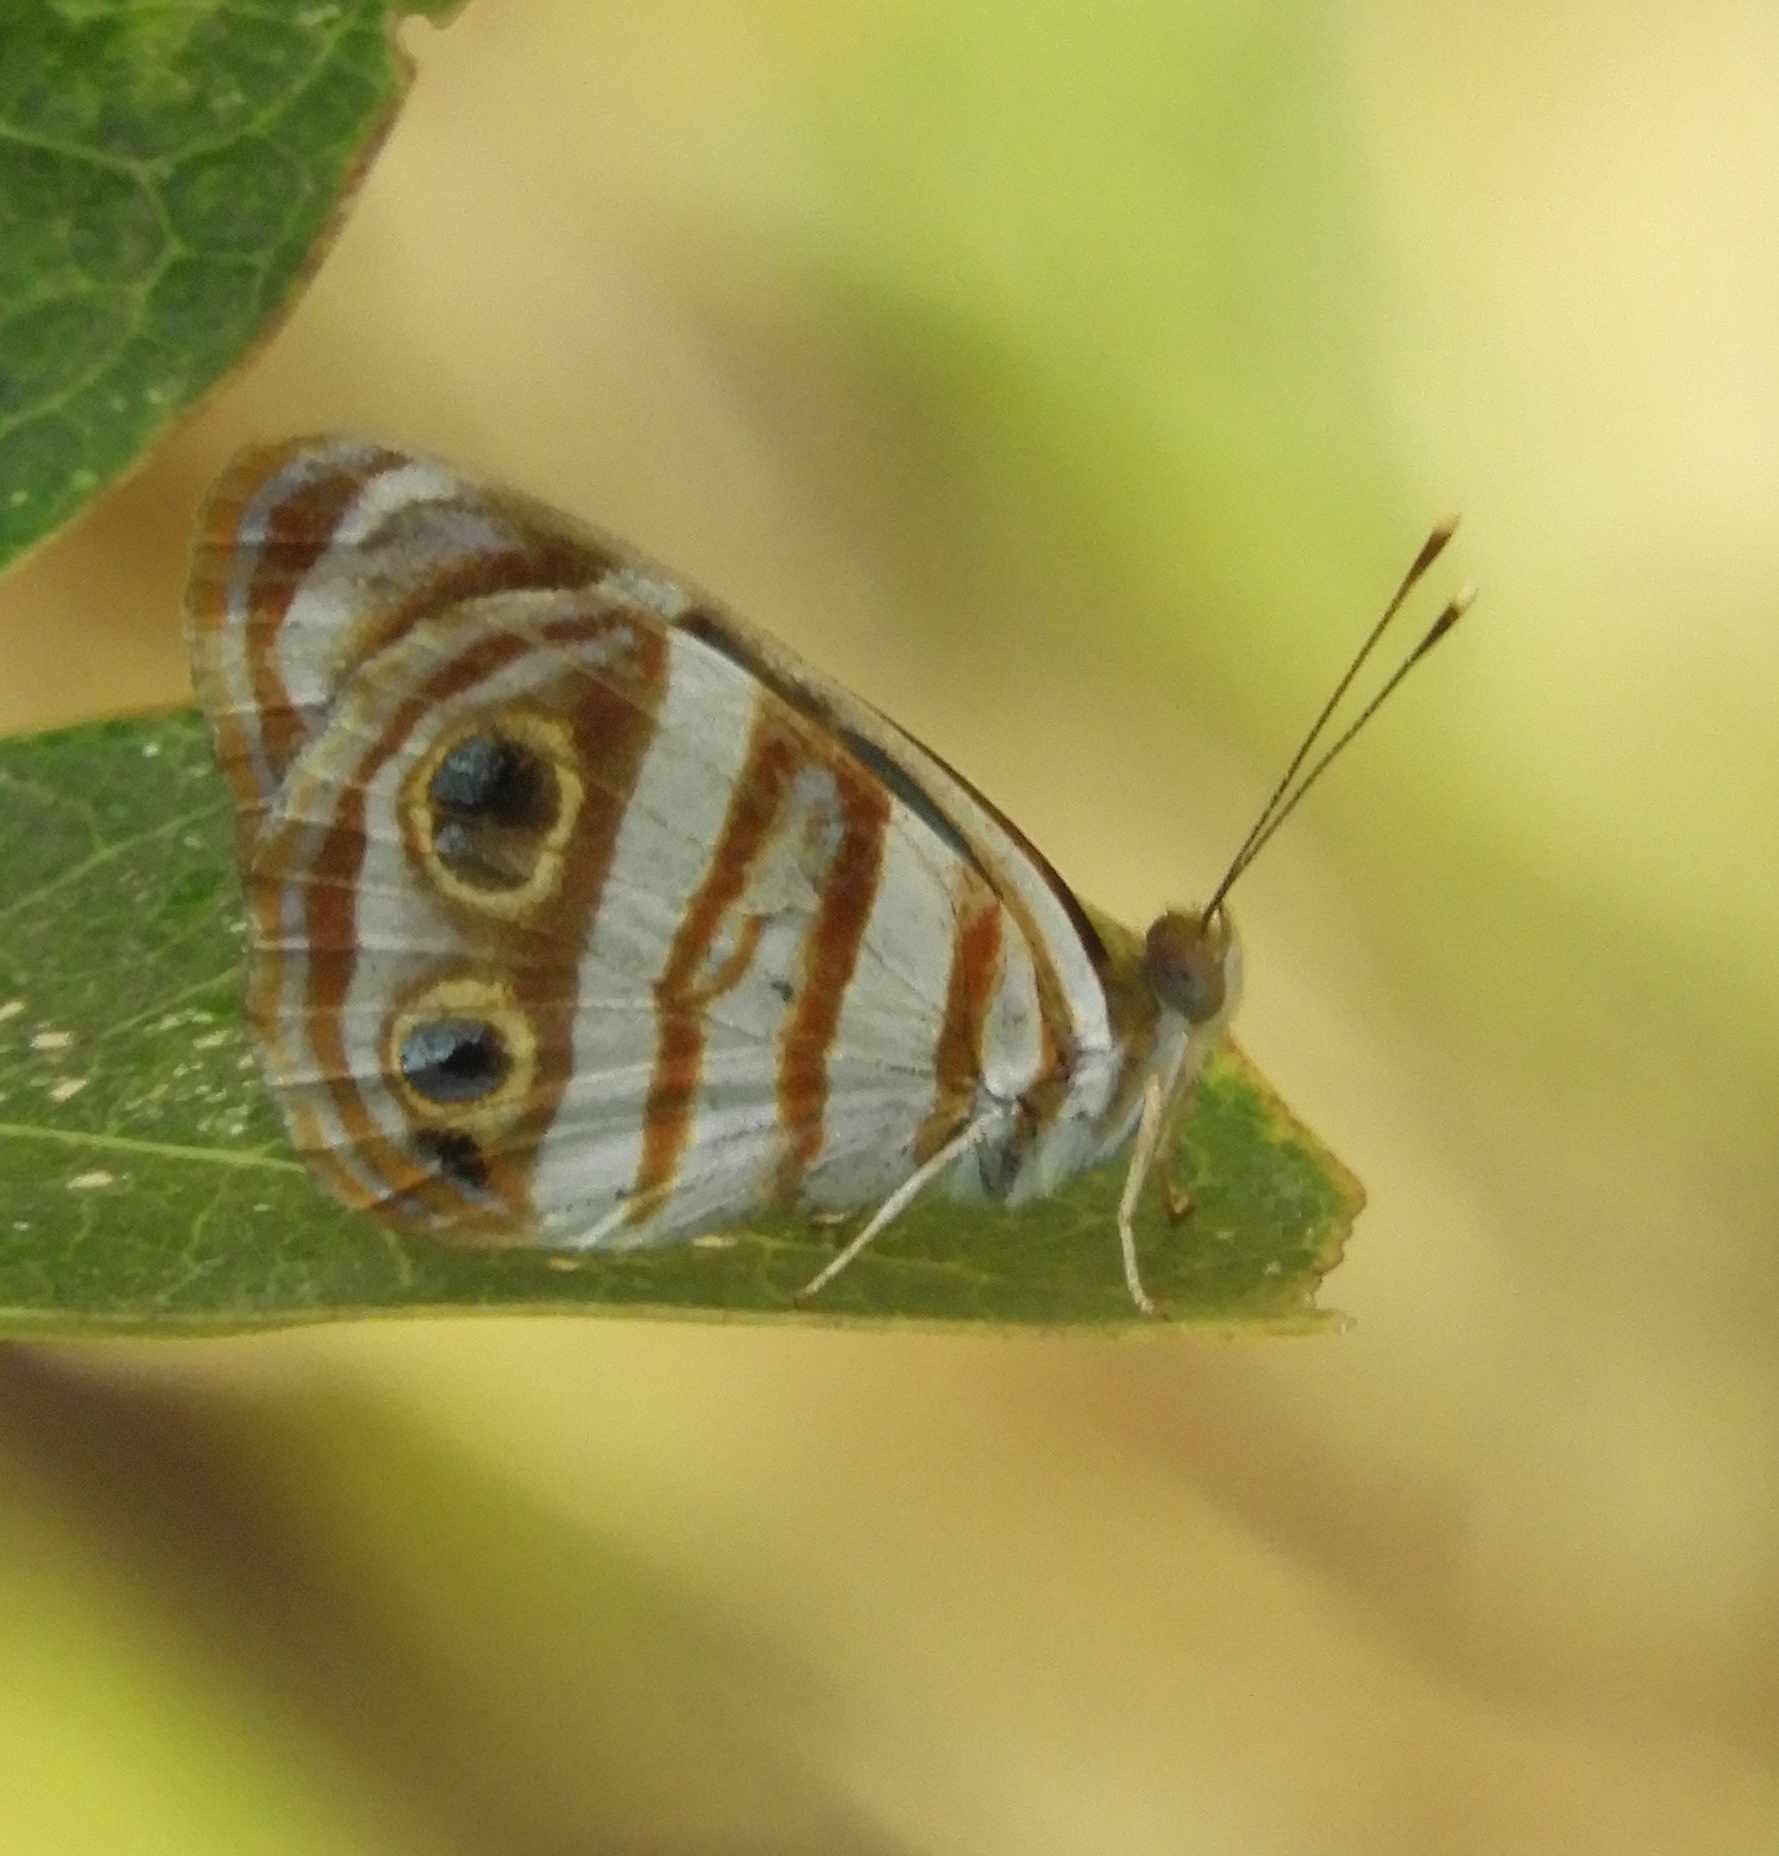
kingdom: Animalia
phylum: Arthropoda
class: Insecta
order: Lepidoptera
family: Nymphalidae
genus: Dynamine
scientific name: Dynamine mylitta
